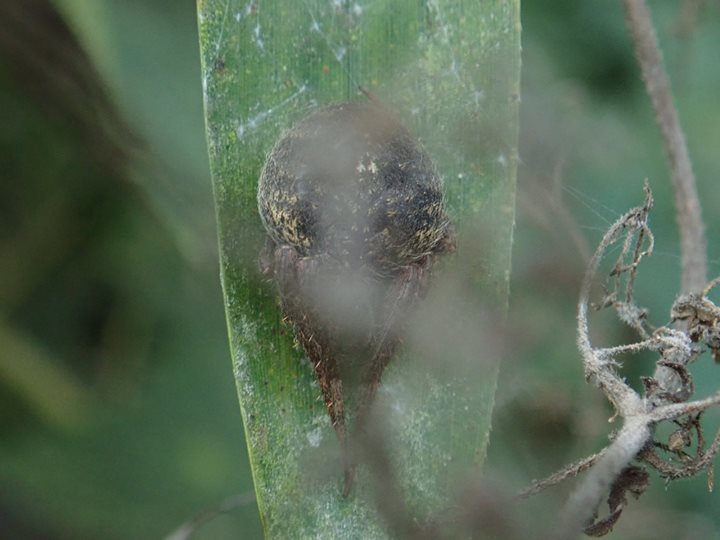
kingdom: Animalia
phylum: Arthropoda
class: Arachnida
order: Araneae
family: Araneidae
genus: Neoscona
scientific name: Neoscona punctigera
